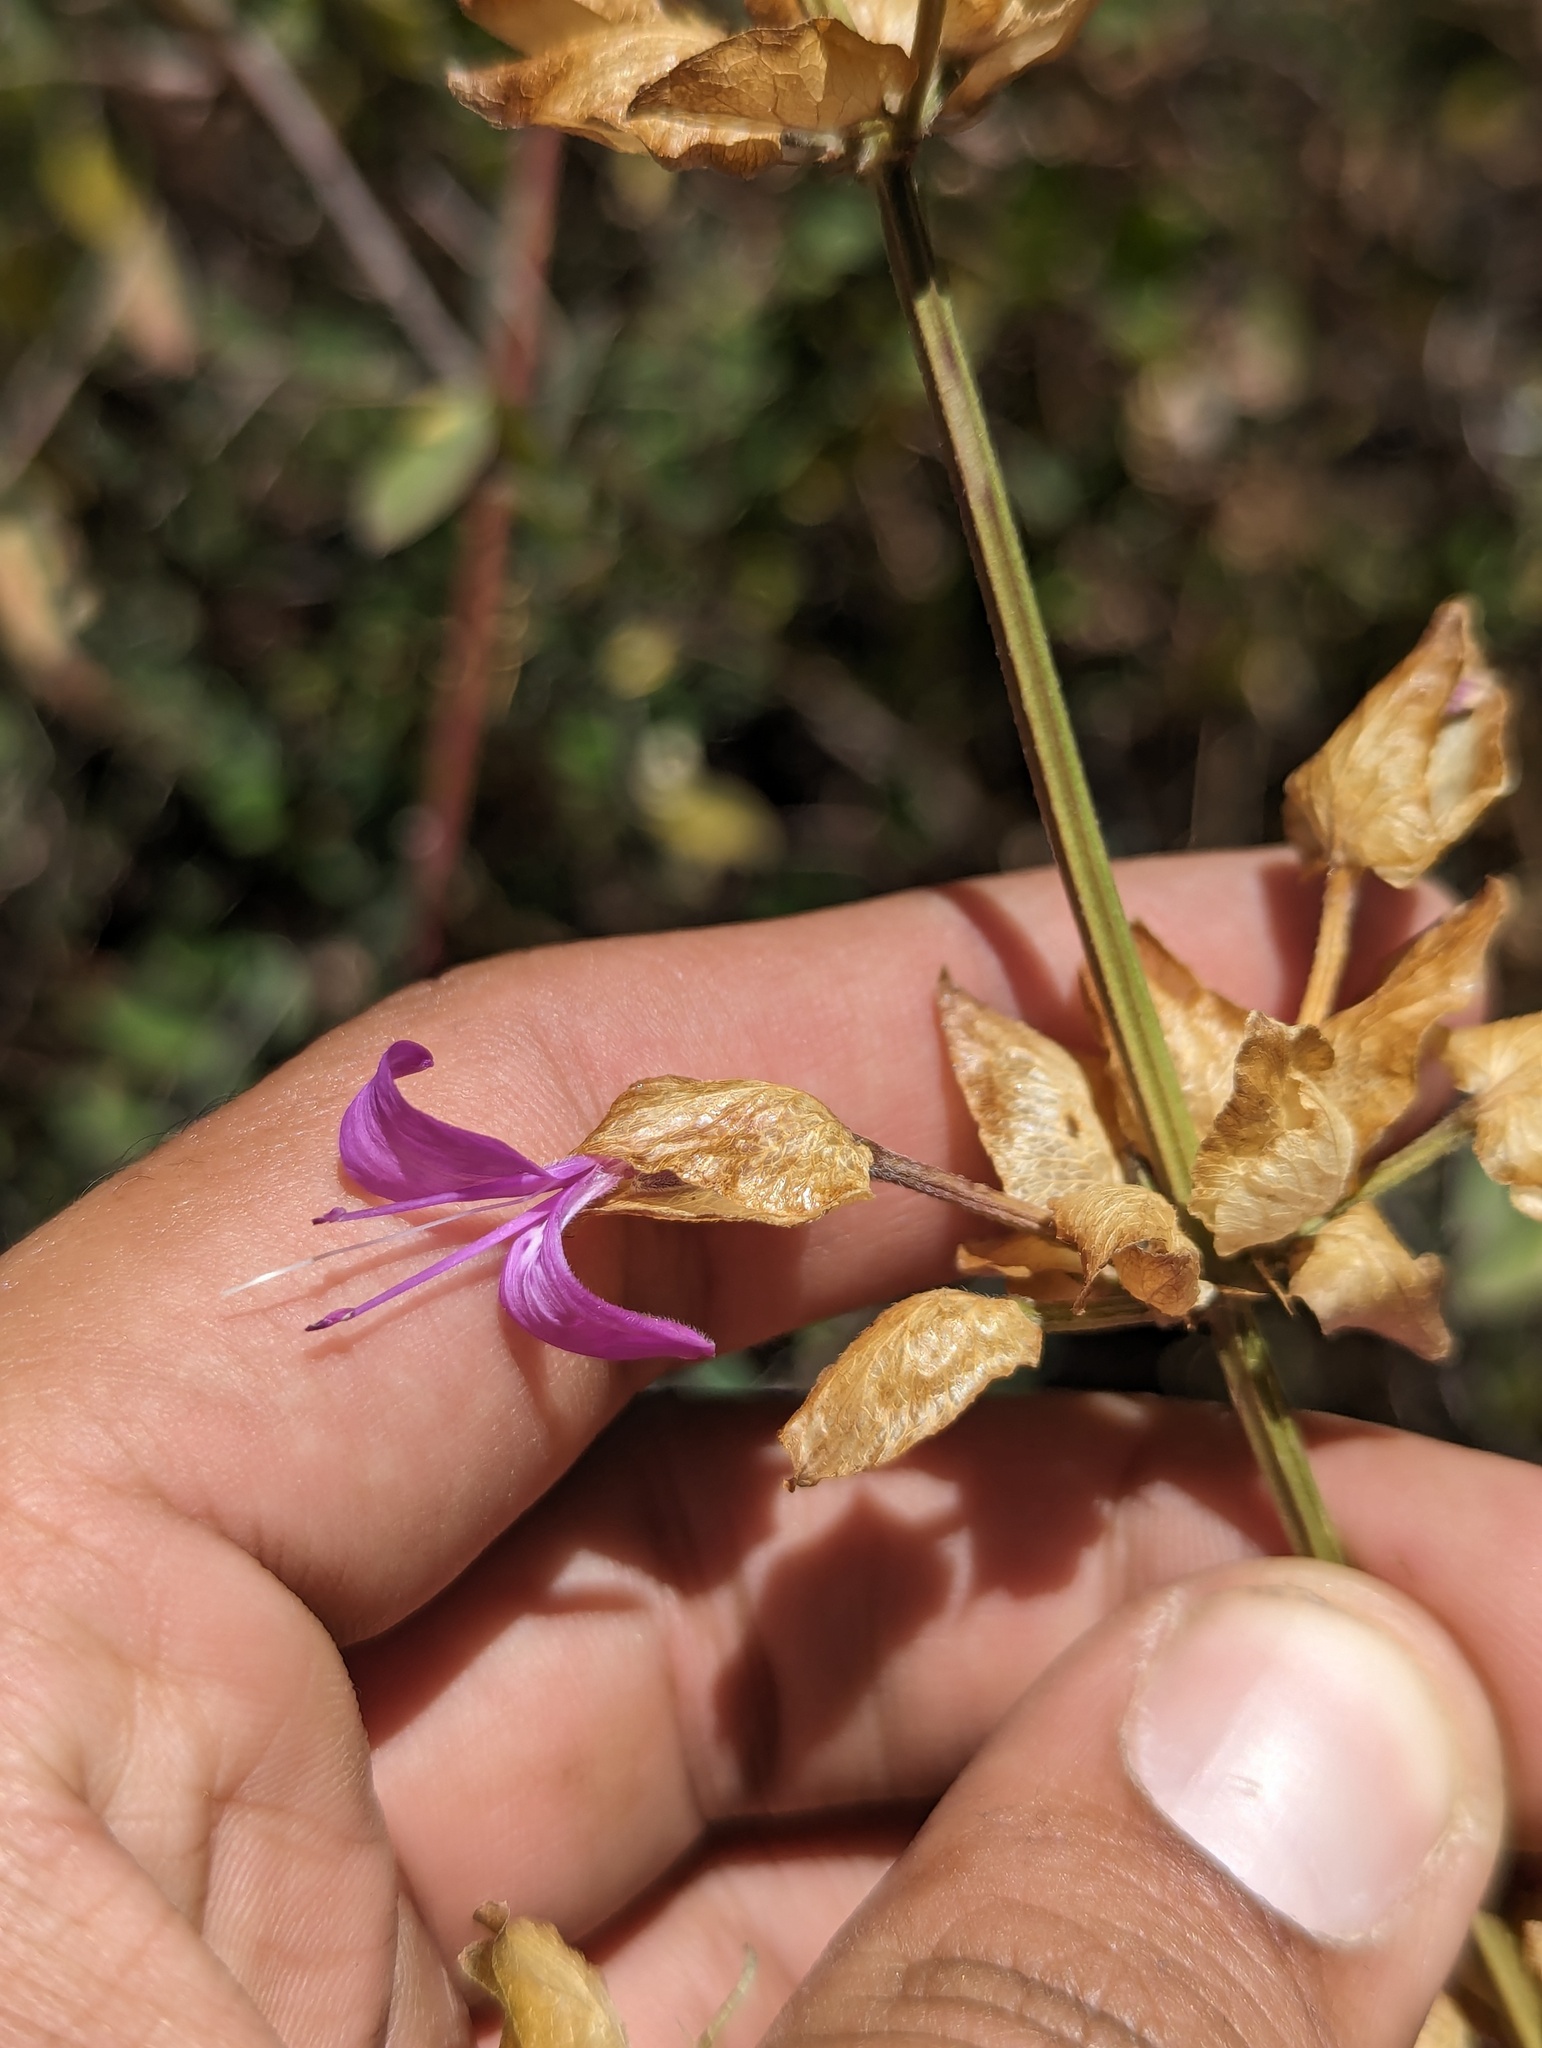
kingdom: Plantae
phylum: Tracheophyta
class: Magnoliopsida
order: Lamiales
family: Acanthaceae
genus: Dicliptera
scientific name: Dicliptera resupinata
